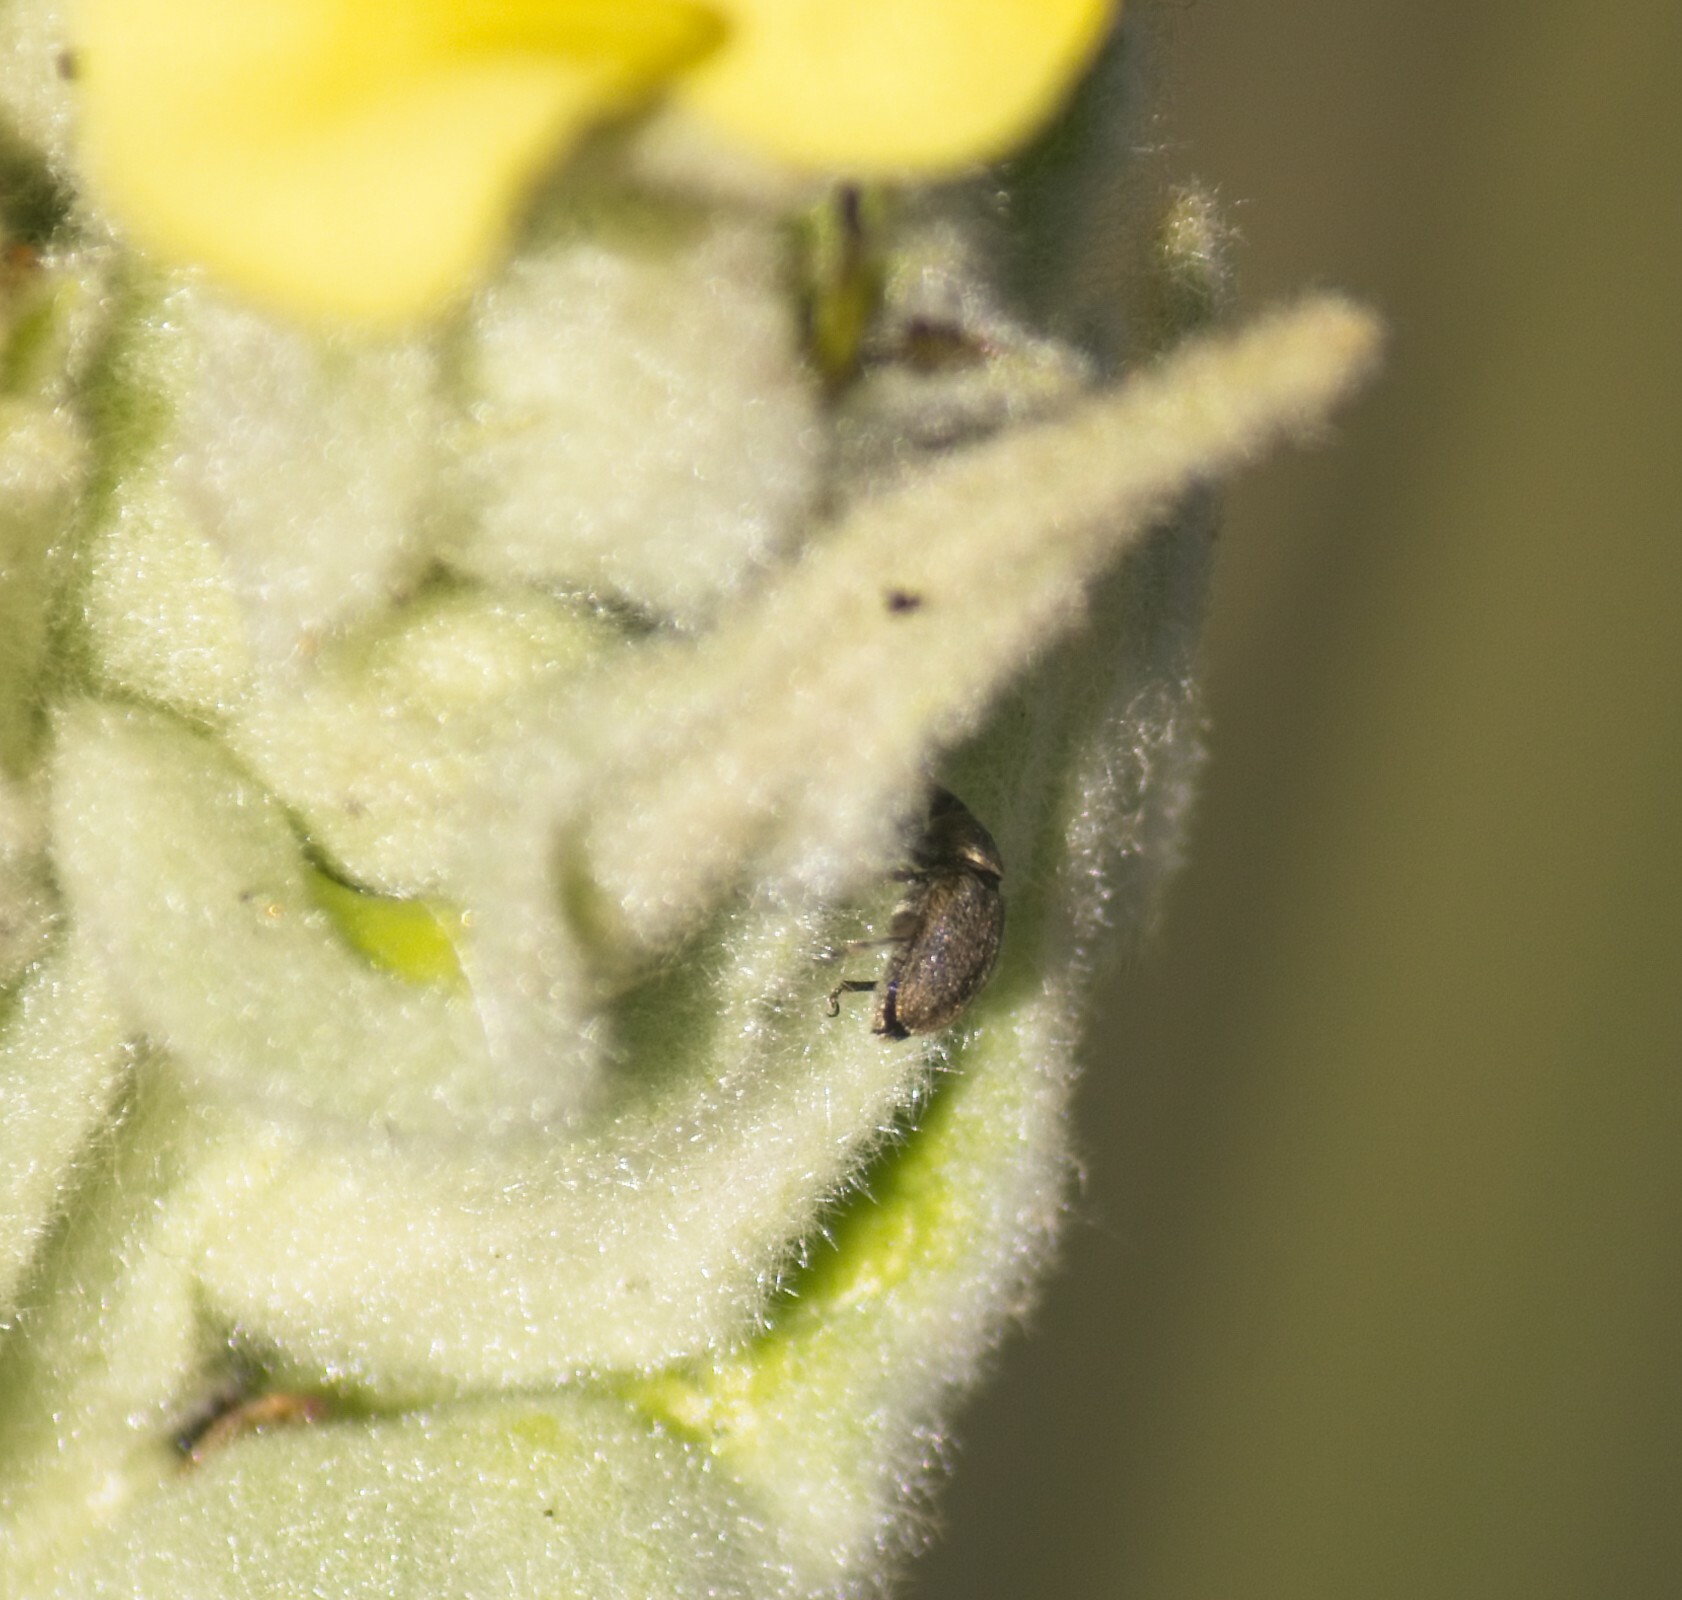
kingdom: Animalia
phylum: Arthropoda
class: Insecta
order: Coleoptera
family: Curculionidae
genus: Rhinusa
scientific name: Rhinusa tetra
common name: Weevil
